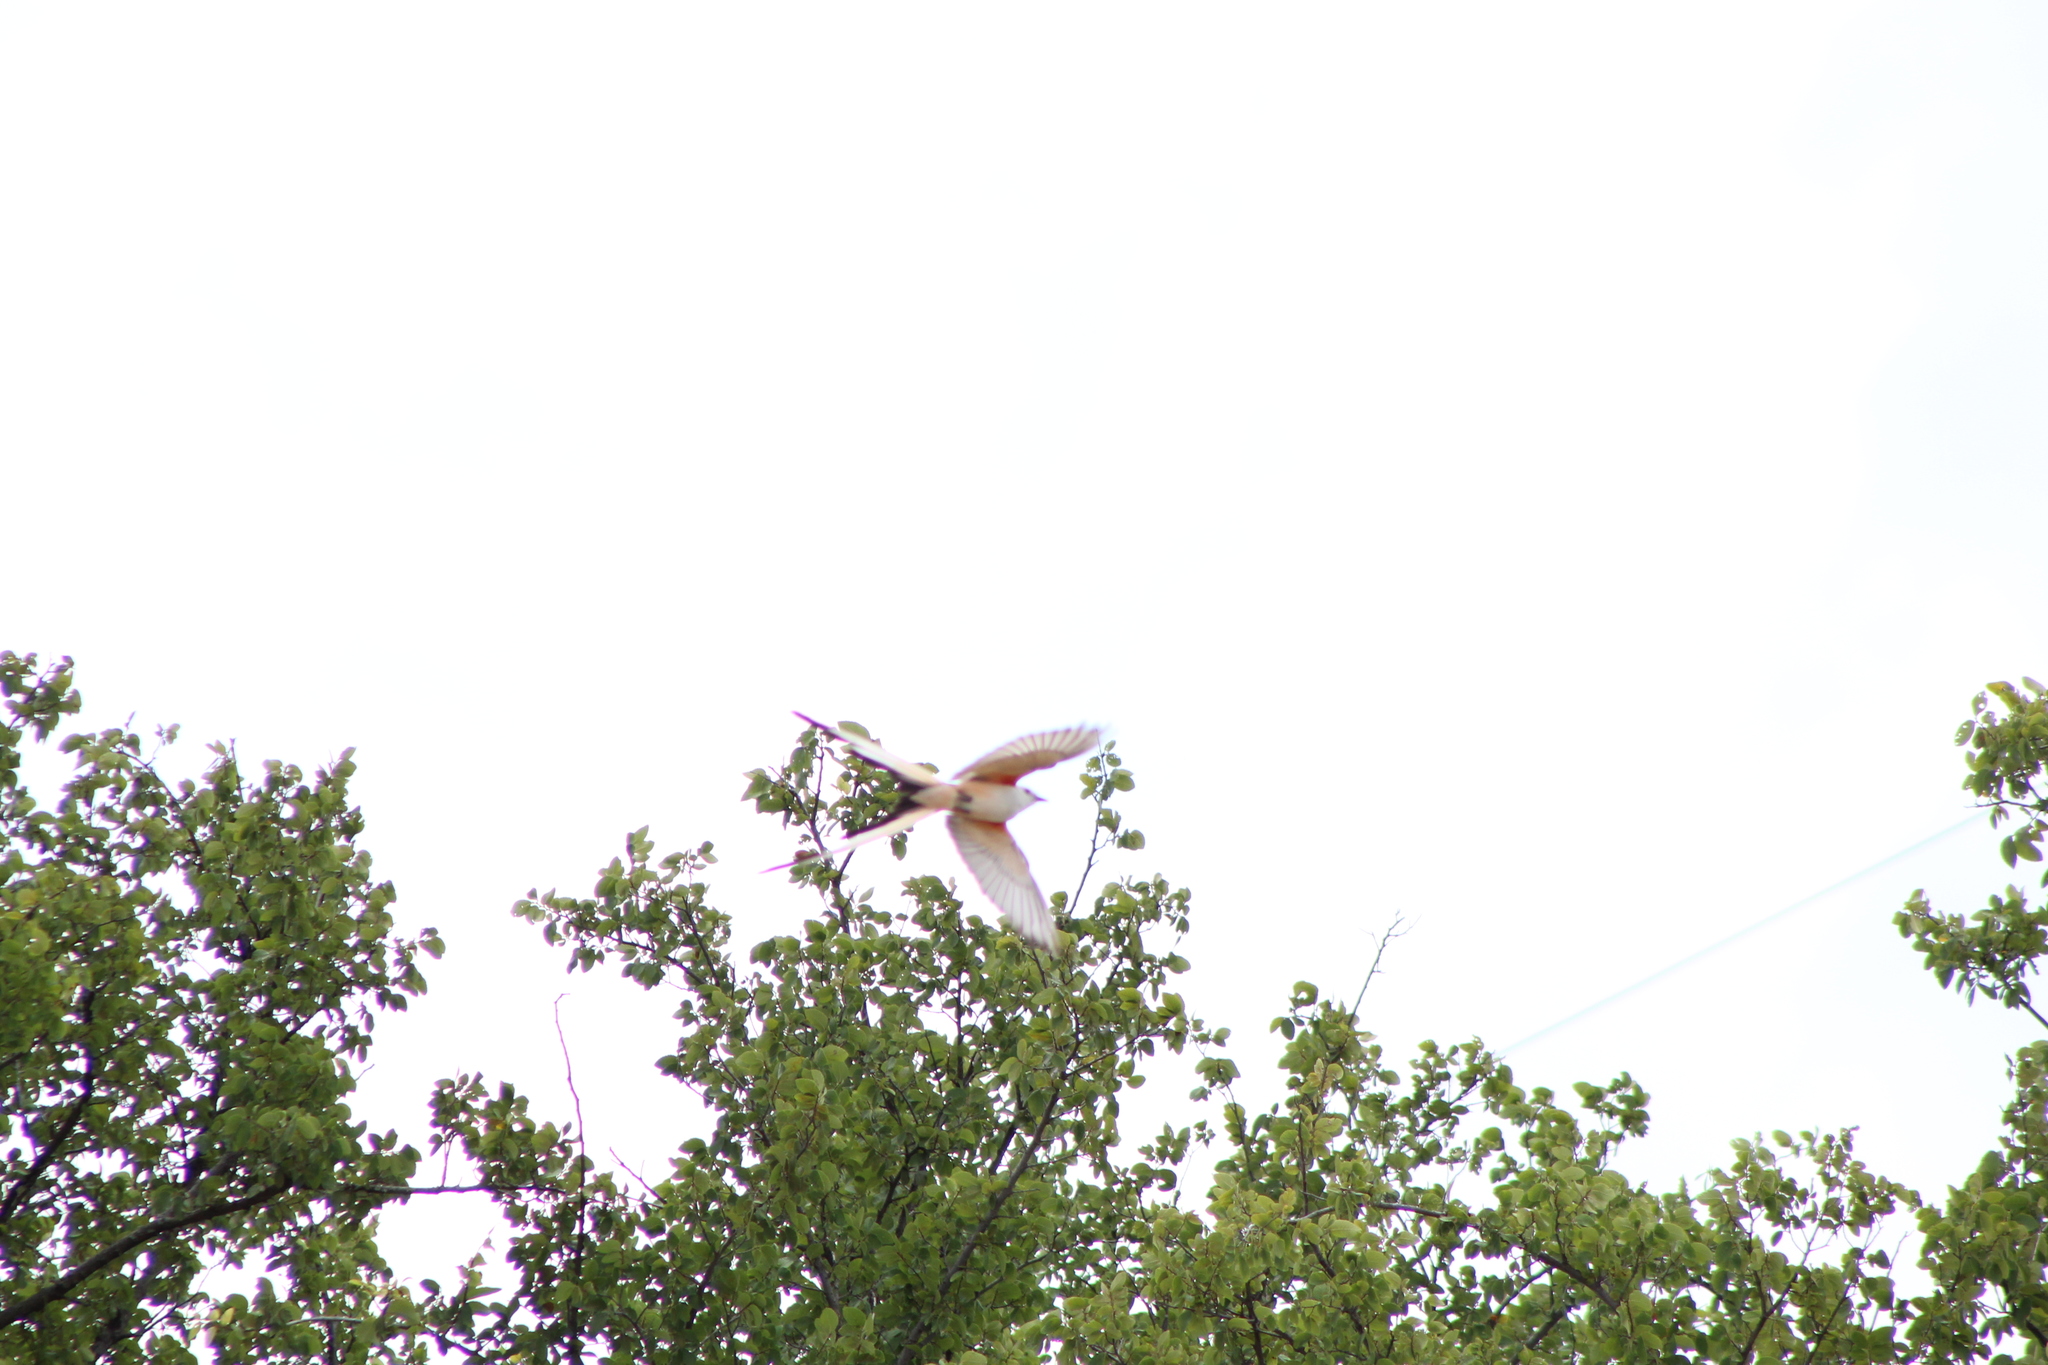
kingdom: Animalia
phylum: Chordata
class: Aves
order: Passeriformes
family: Tyrannidae
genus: Tyrannus
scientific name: Tyrannus forficatus
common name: Scissor-tailed flycatcher
